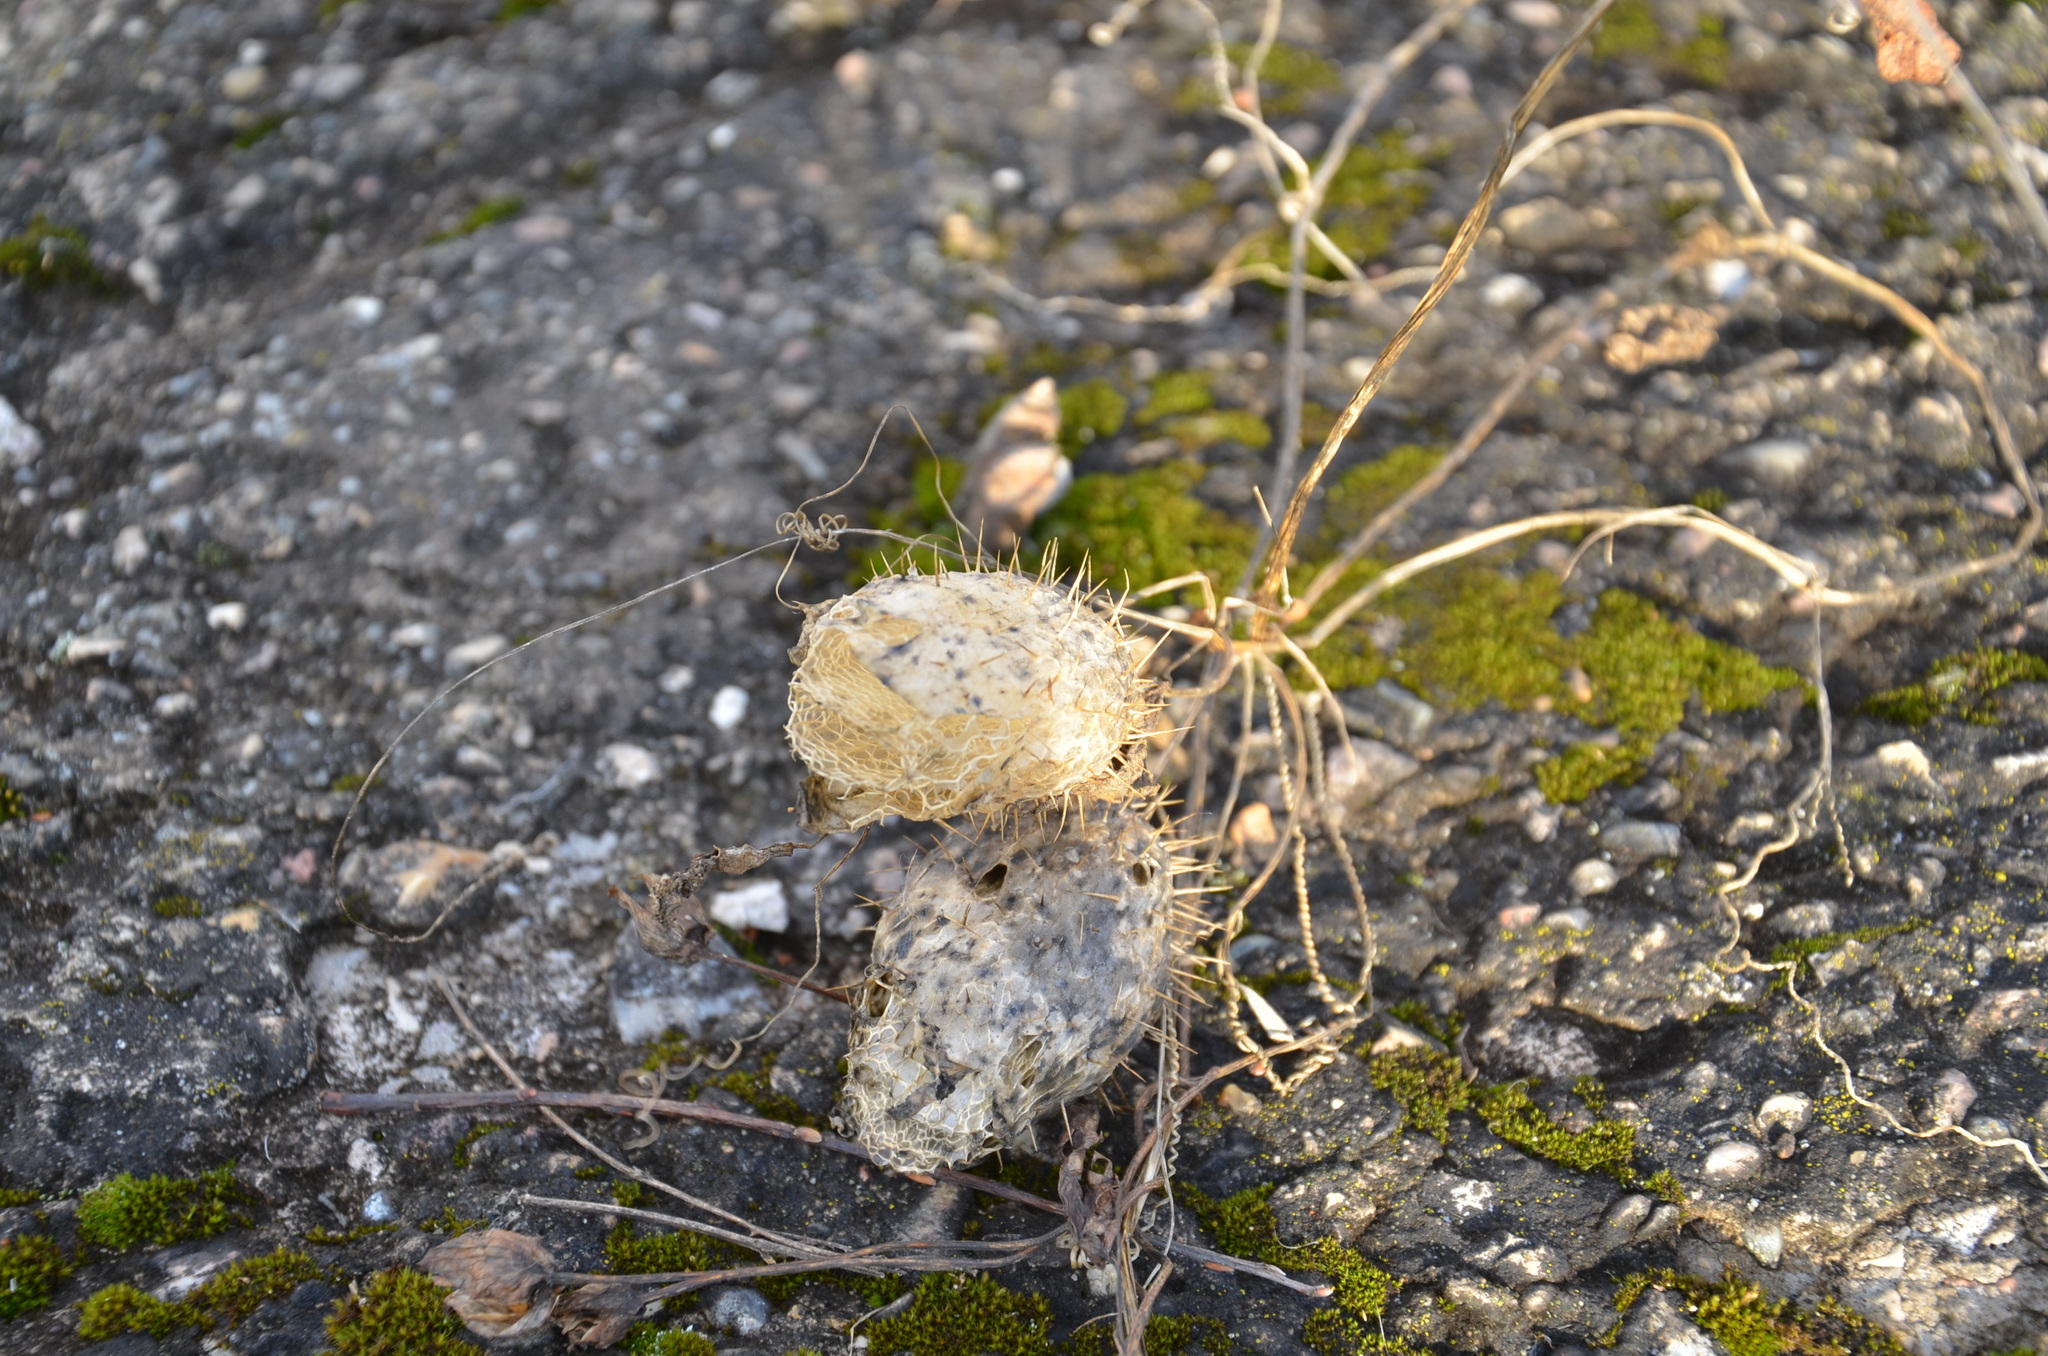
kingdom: Plantae
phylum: Tracheophyta
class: Magnoliopsida
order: Cucurbitales
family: Cucurbitaceae
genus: Echinocystis
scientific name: Echinocystis lobata
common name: Wild cucumber
